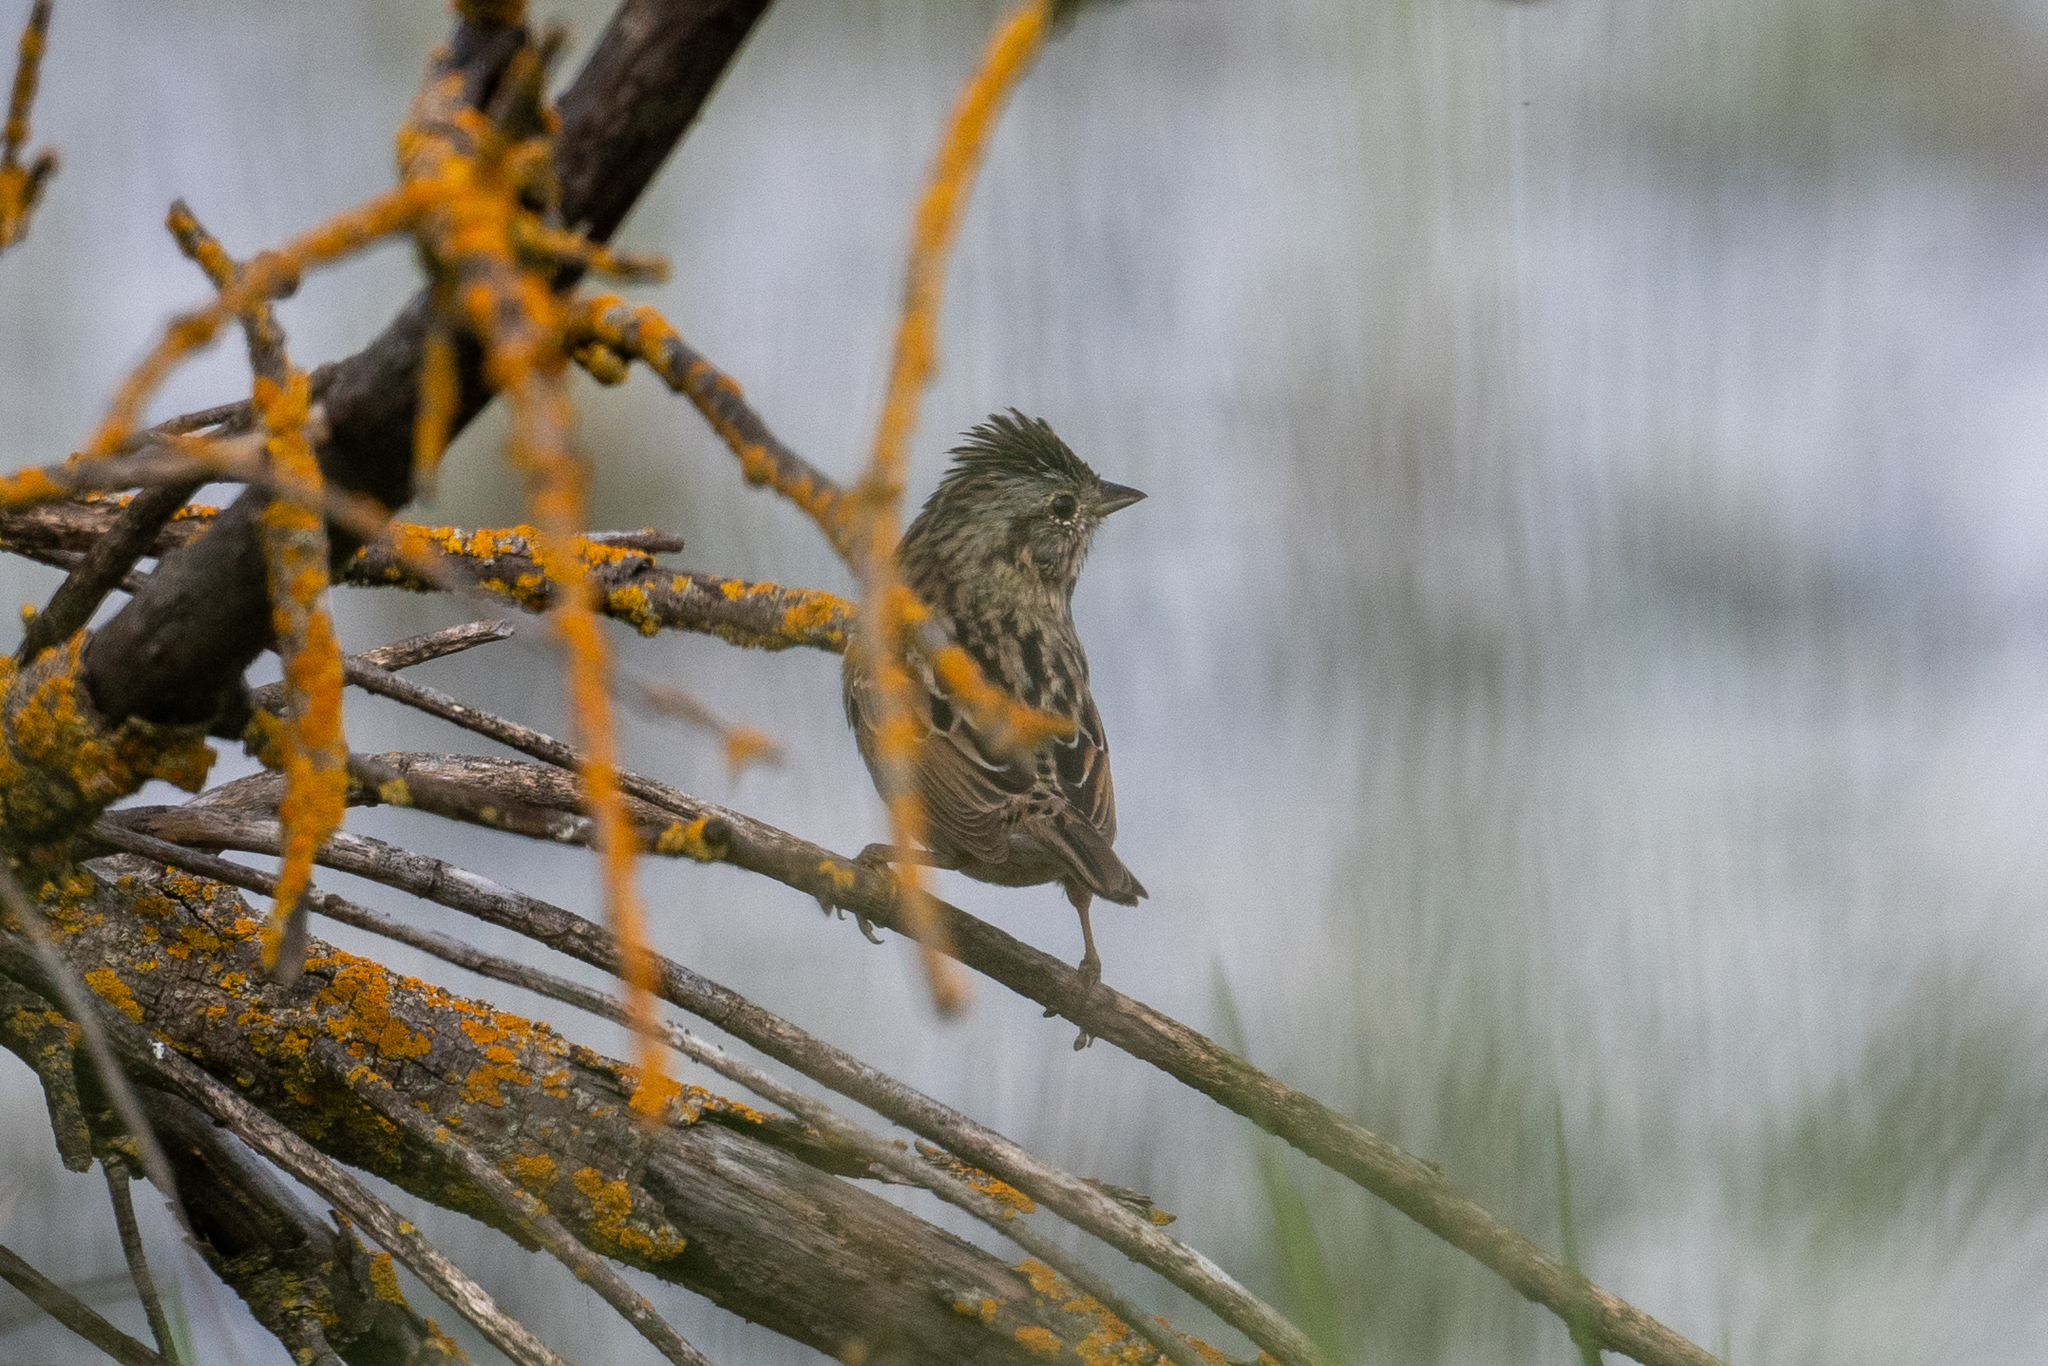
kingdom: Animalia
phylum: Chordata
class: Aves
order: Passeriformes
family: Passerellidae
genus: Melospiza
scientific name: Melospiza lincolnii
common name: Lincoln's sparrow
